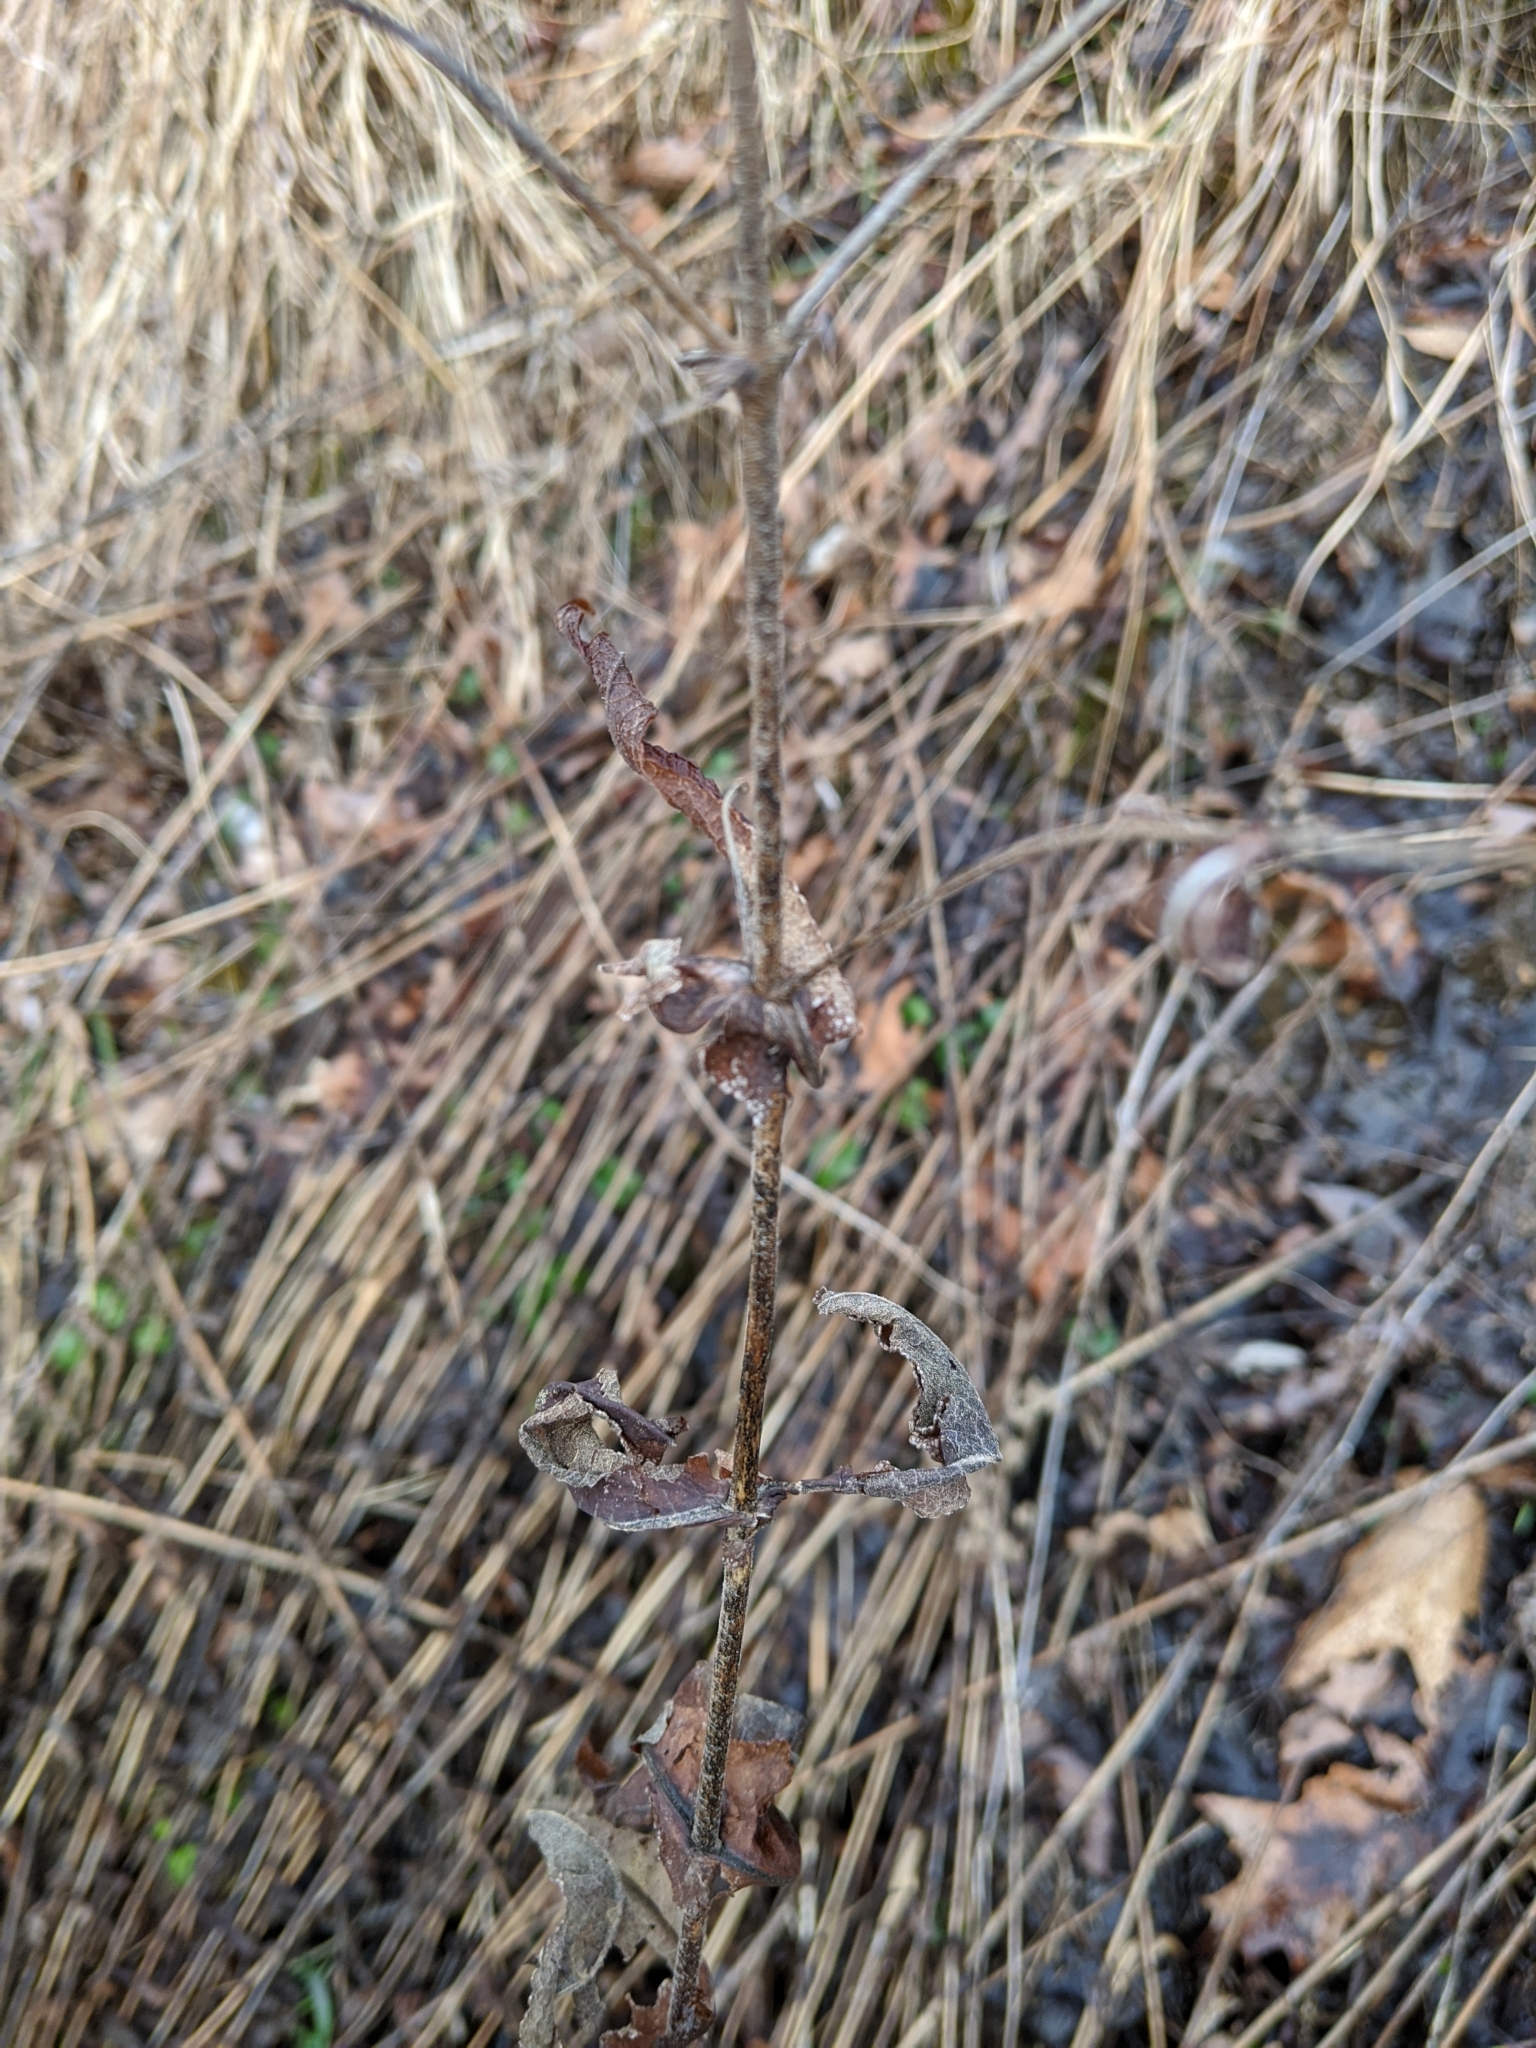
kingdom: Plantae
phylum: Tracheophyta
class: Magnoliopsida
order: Asterales
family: Asteraceae
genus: Eupatorium
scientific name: Eupatorium perfoliatum
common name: Boneset
